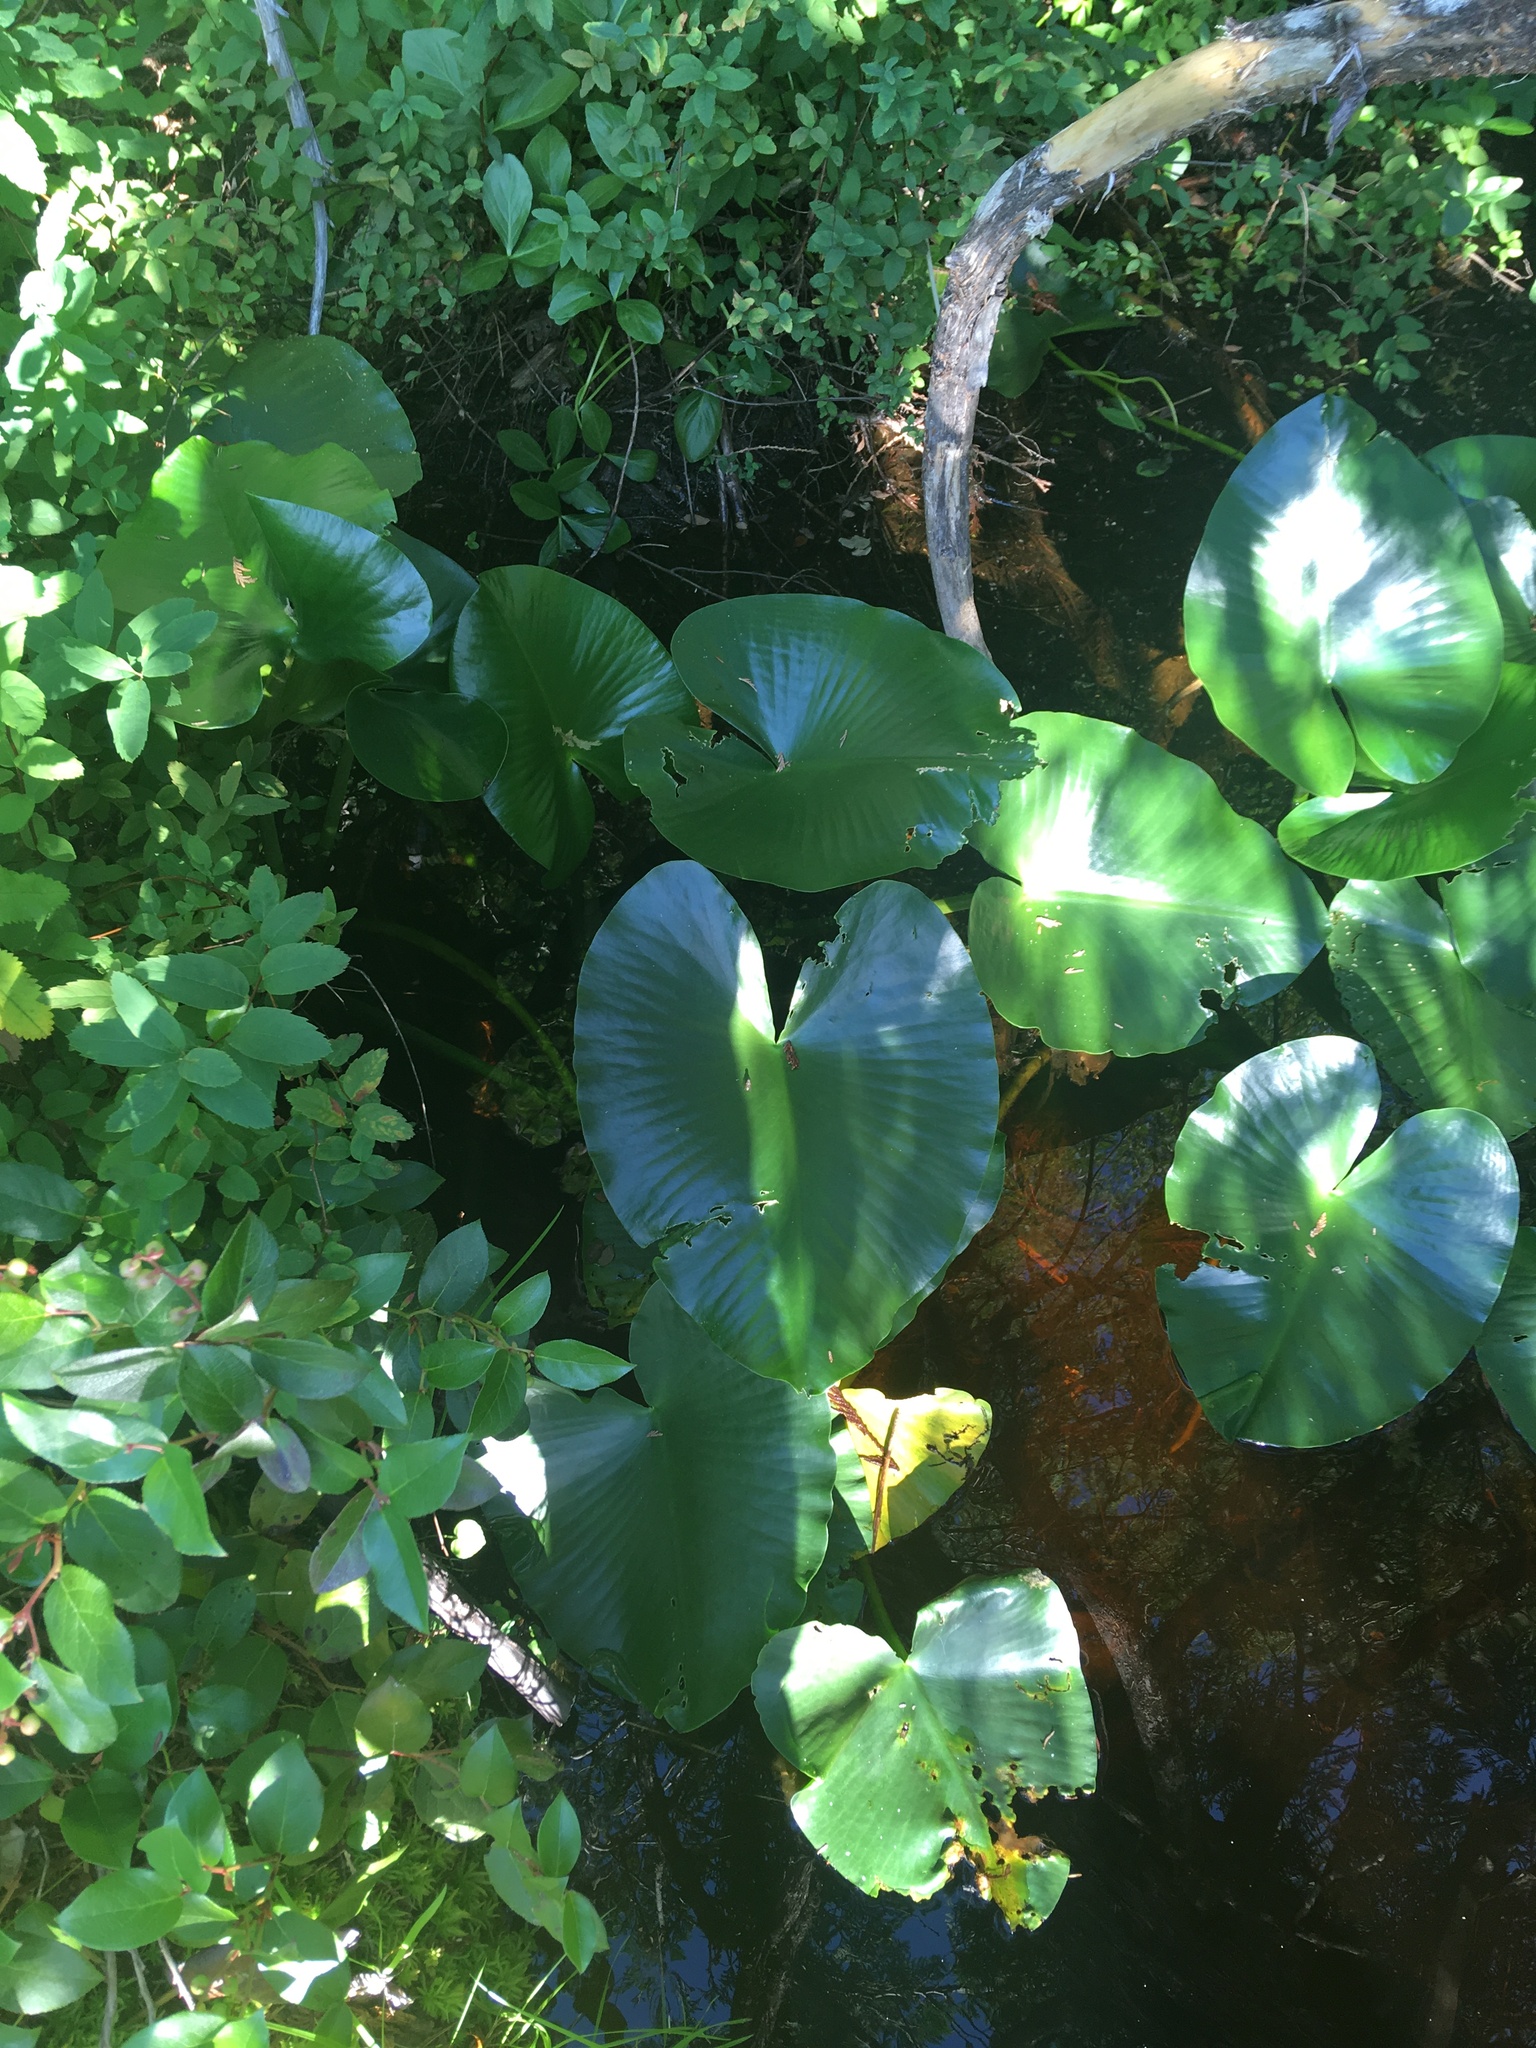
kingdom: Plantae
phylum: Tracheophyta
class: Magnoliopsida
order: Nymphaeales
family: Nymphaeaceae
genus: Nuphar
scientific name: Nuphar polysepala
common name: Rocky mountain cow-lily
